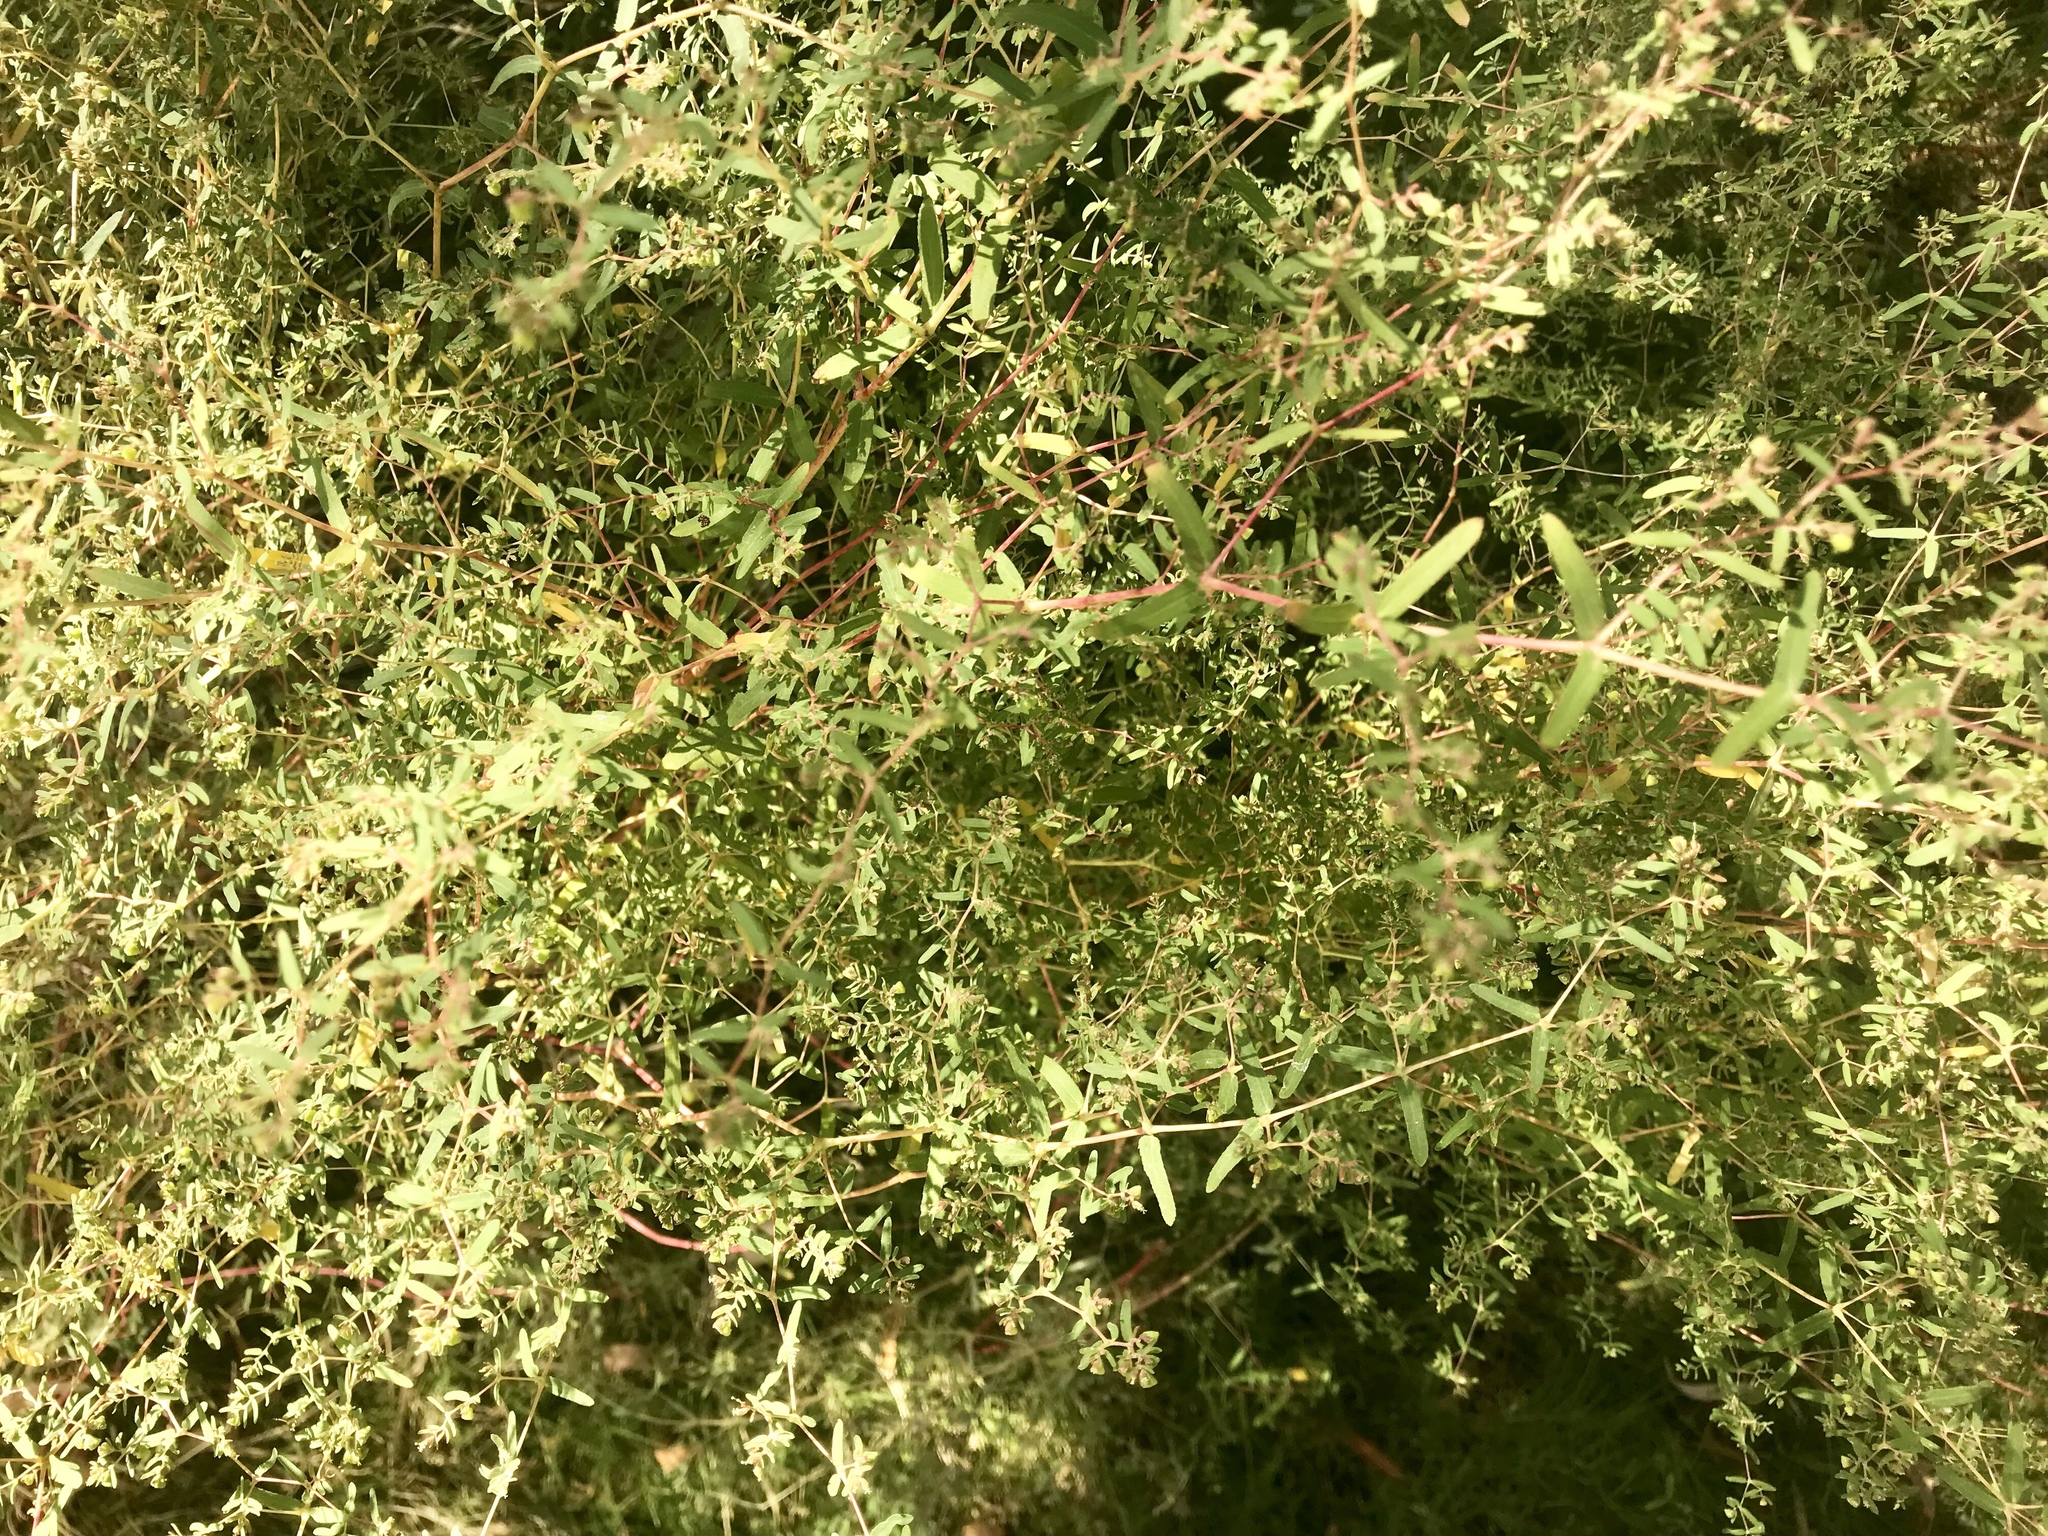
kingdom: Plantae
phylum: Tracheophyta
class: Magnoliopsida
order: Malpighiales
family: Euphorbiaceae
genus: Euphorbia
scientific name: Euphorbia hyssopifolia
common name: Hyssopleaf sandmat
